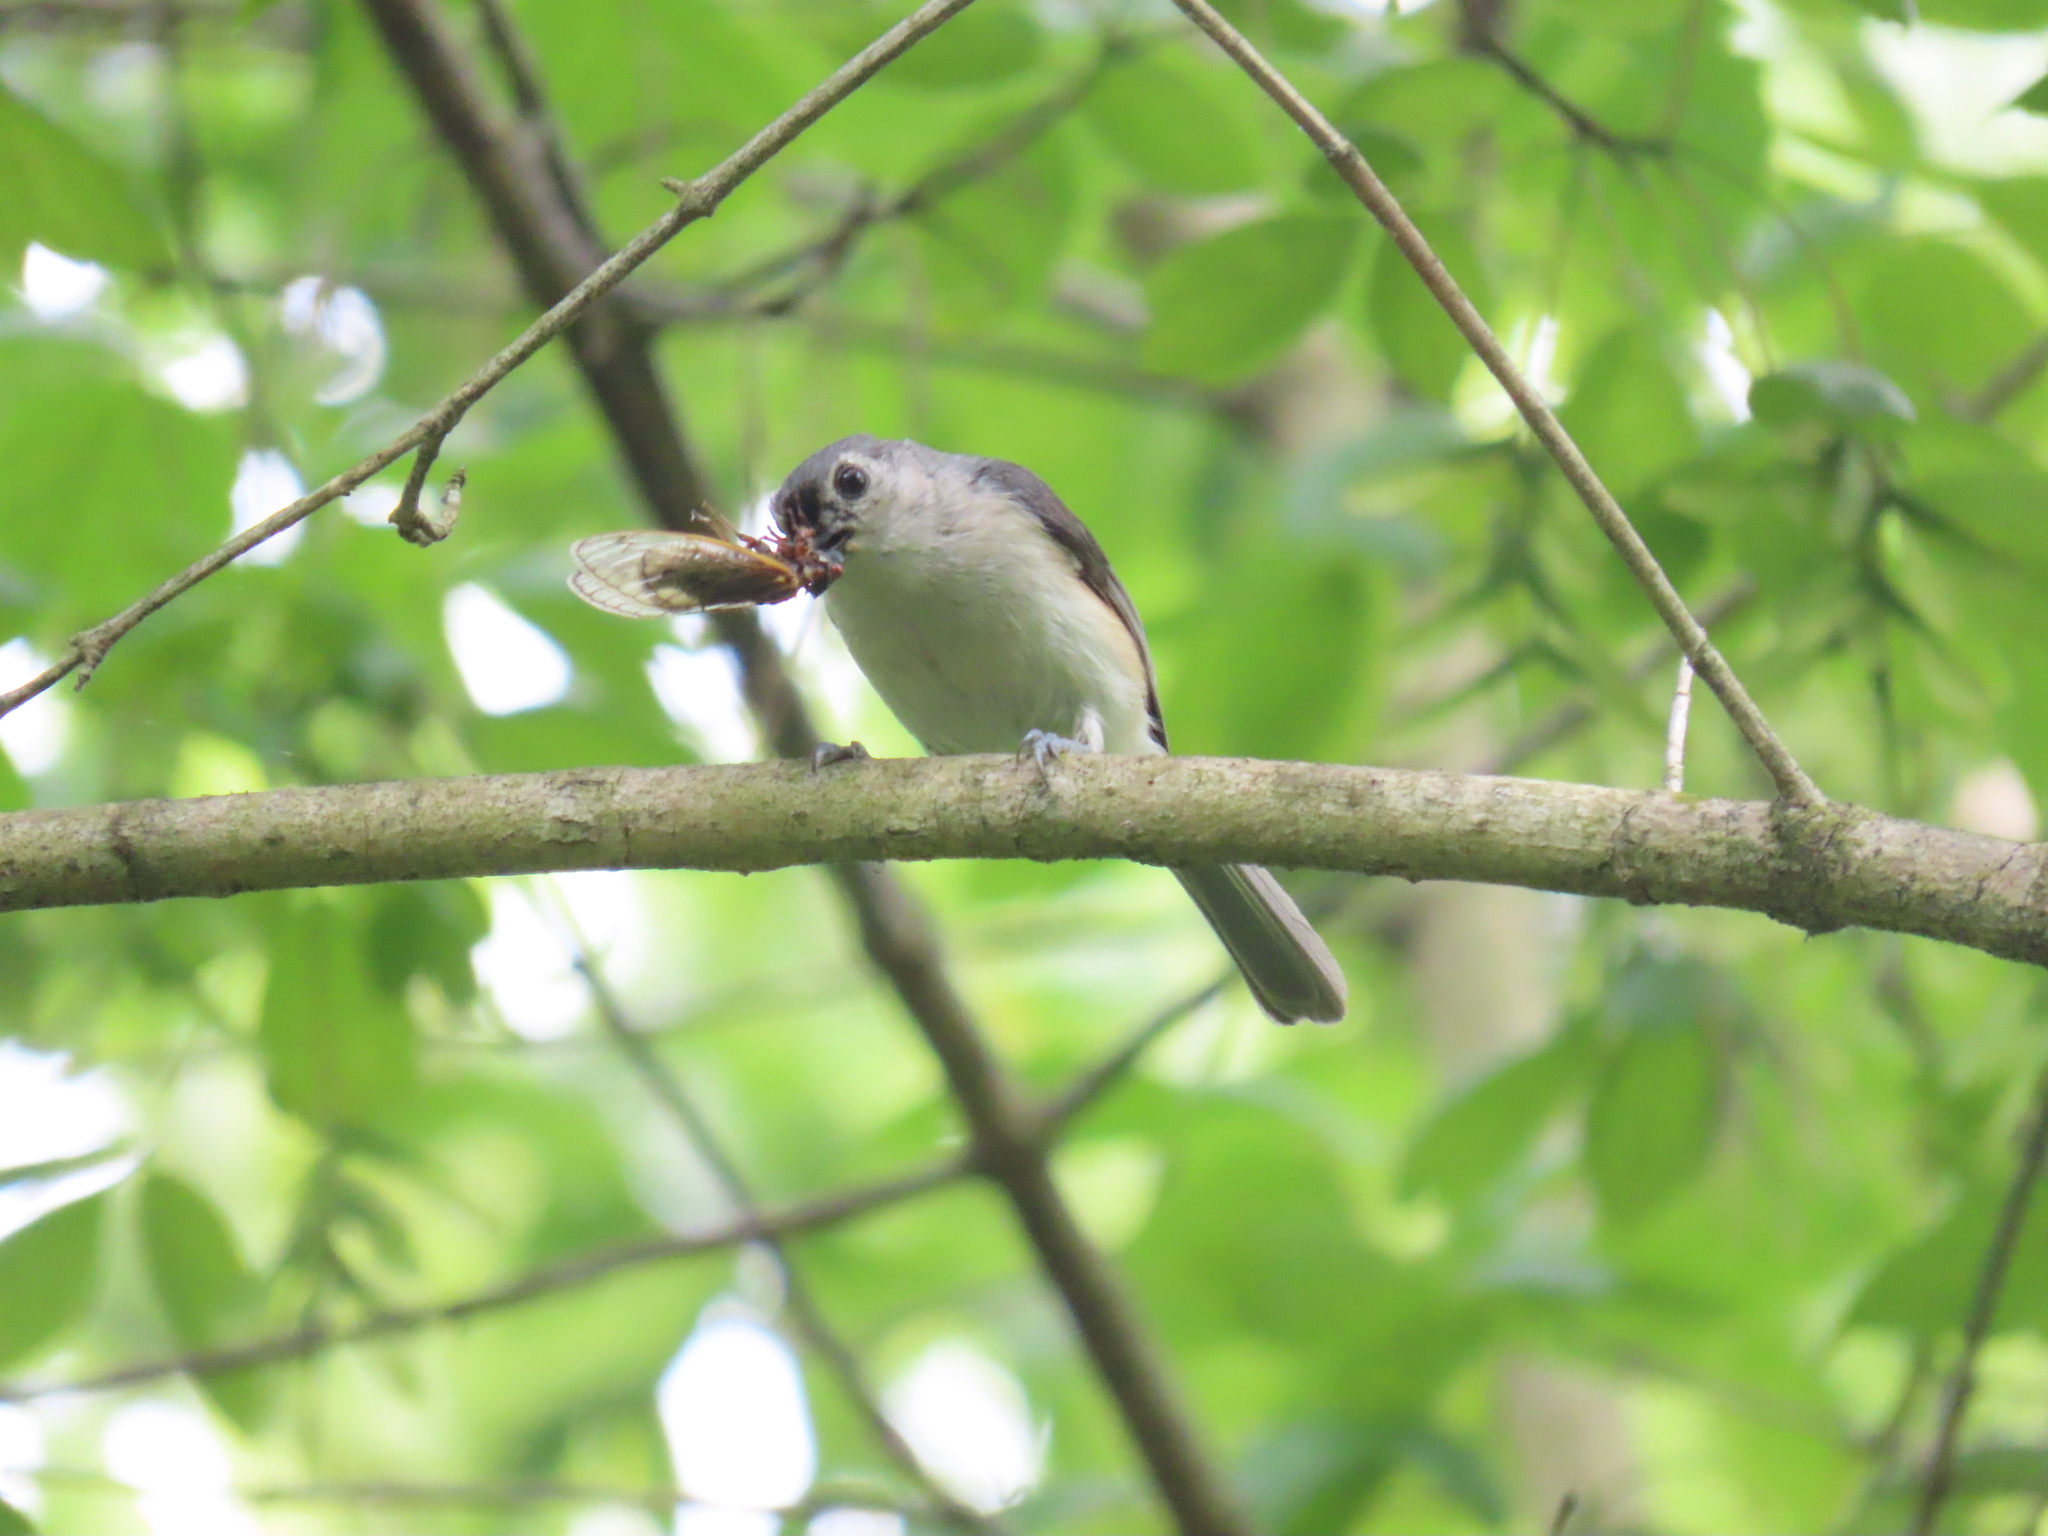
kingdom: Animalia
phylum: Chordata
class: Aves
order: Passeriformes
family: Paridae
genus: Baeolophus
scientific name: Baeolophus bicolor
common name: Tufted titmouse
